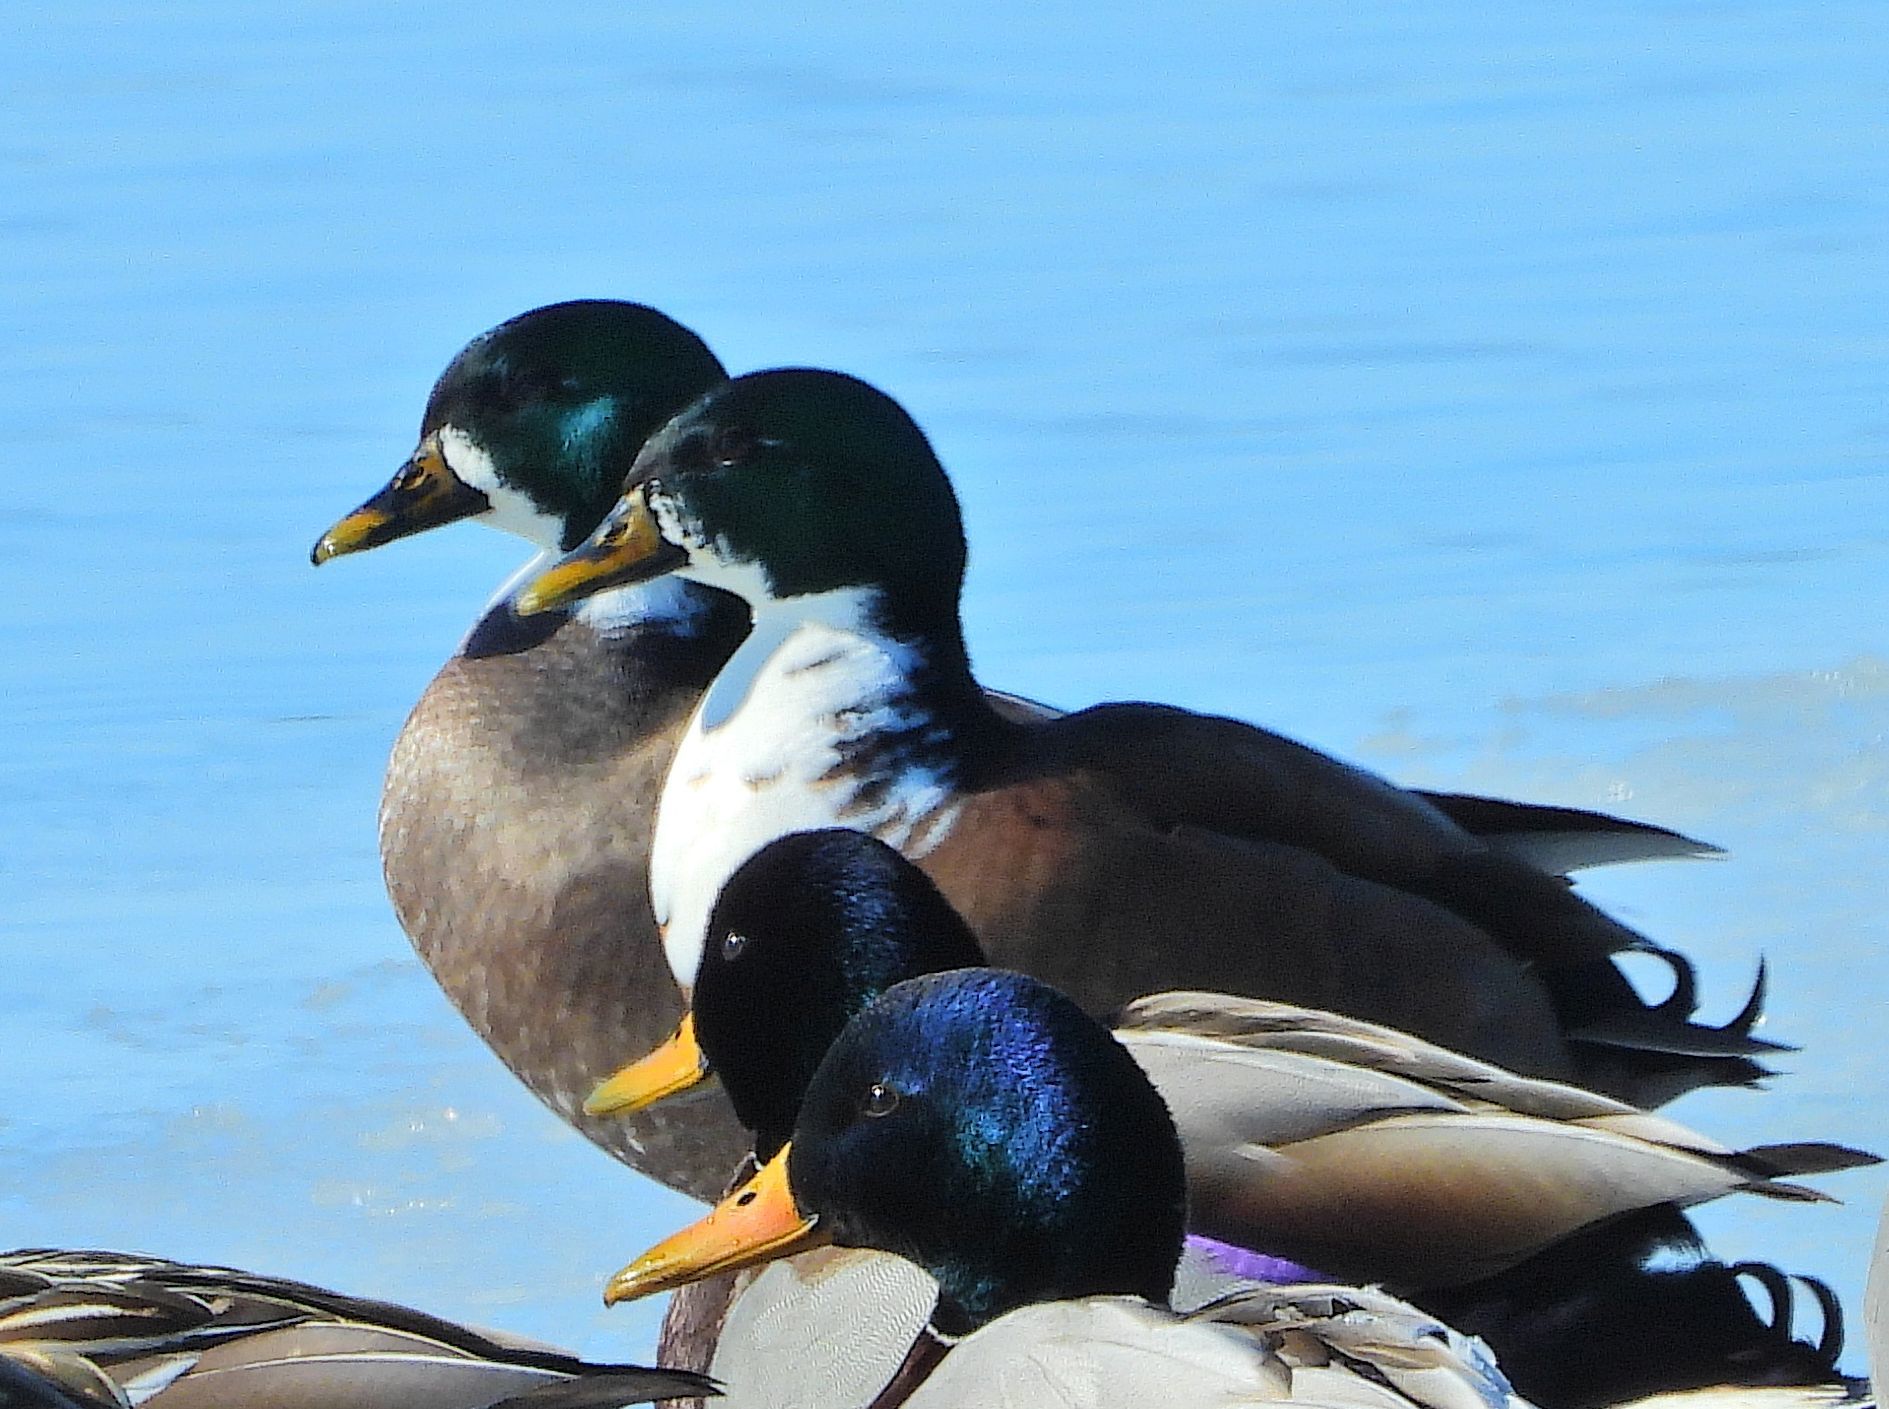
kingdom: Animalia
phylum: Chordata
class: Aves
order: Anseriformes
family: Anatidae
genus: Anas
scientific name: Anas platyrhynchos
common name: Mallard
